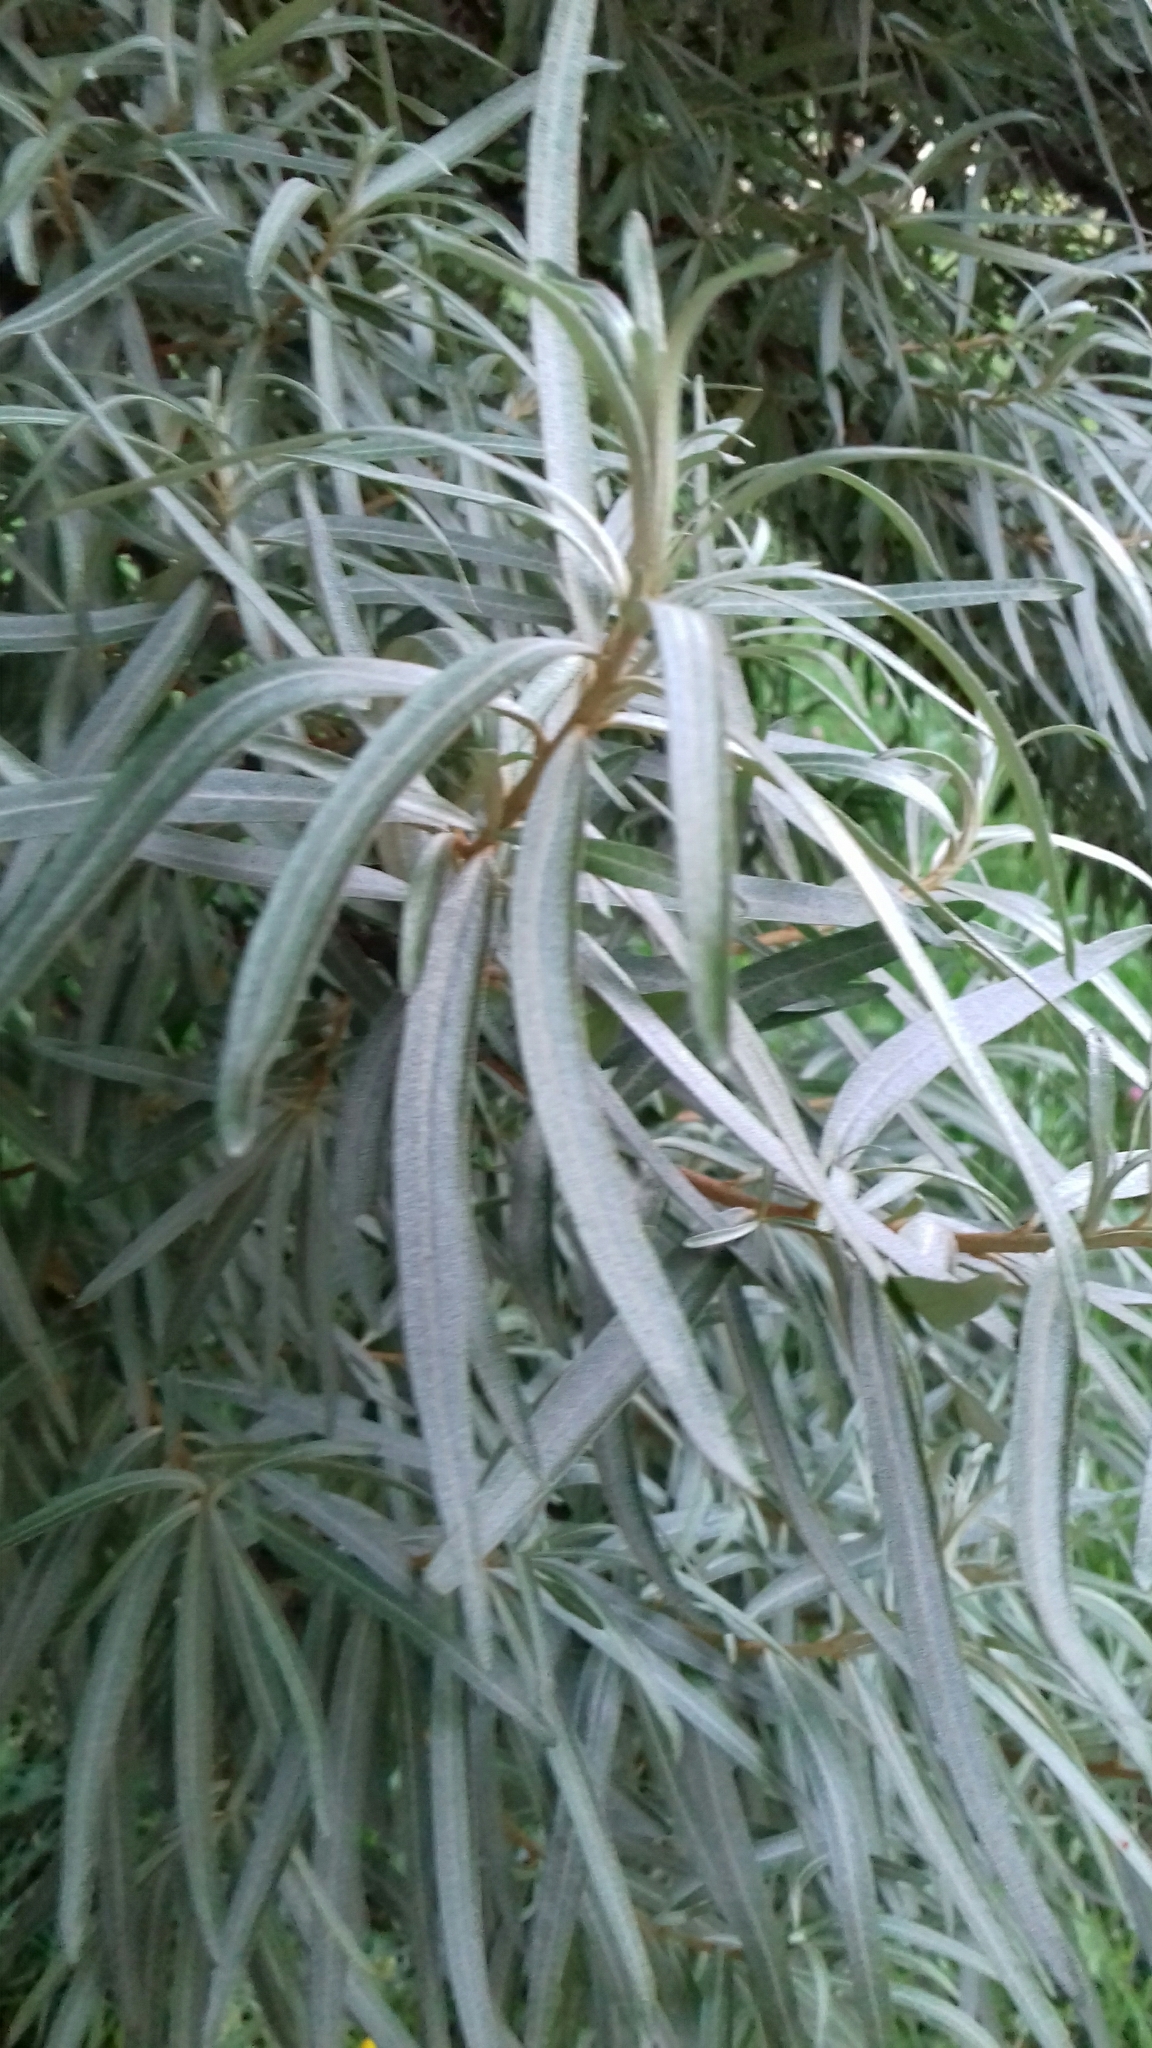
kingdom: Plantae
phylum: Tracheophyta
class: Magnoliopsida
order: Rosales
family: Elaeagnaceae
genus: Hippophae
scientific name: Hippophae rhamnoides
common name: Sea-buckthorn
